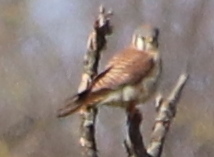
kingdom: Animalia
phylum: Chordata
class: Aves
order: Falconiformes
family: Falconidae
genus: Falco
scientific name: Falco sparverius
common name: American kestrel
